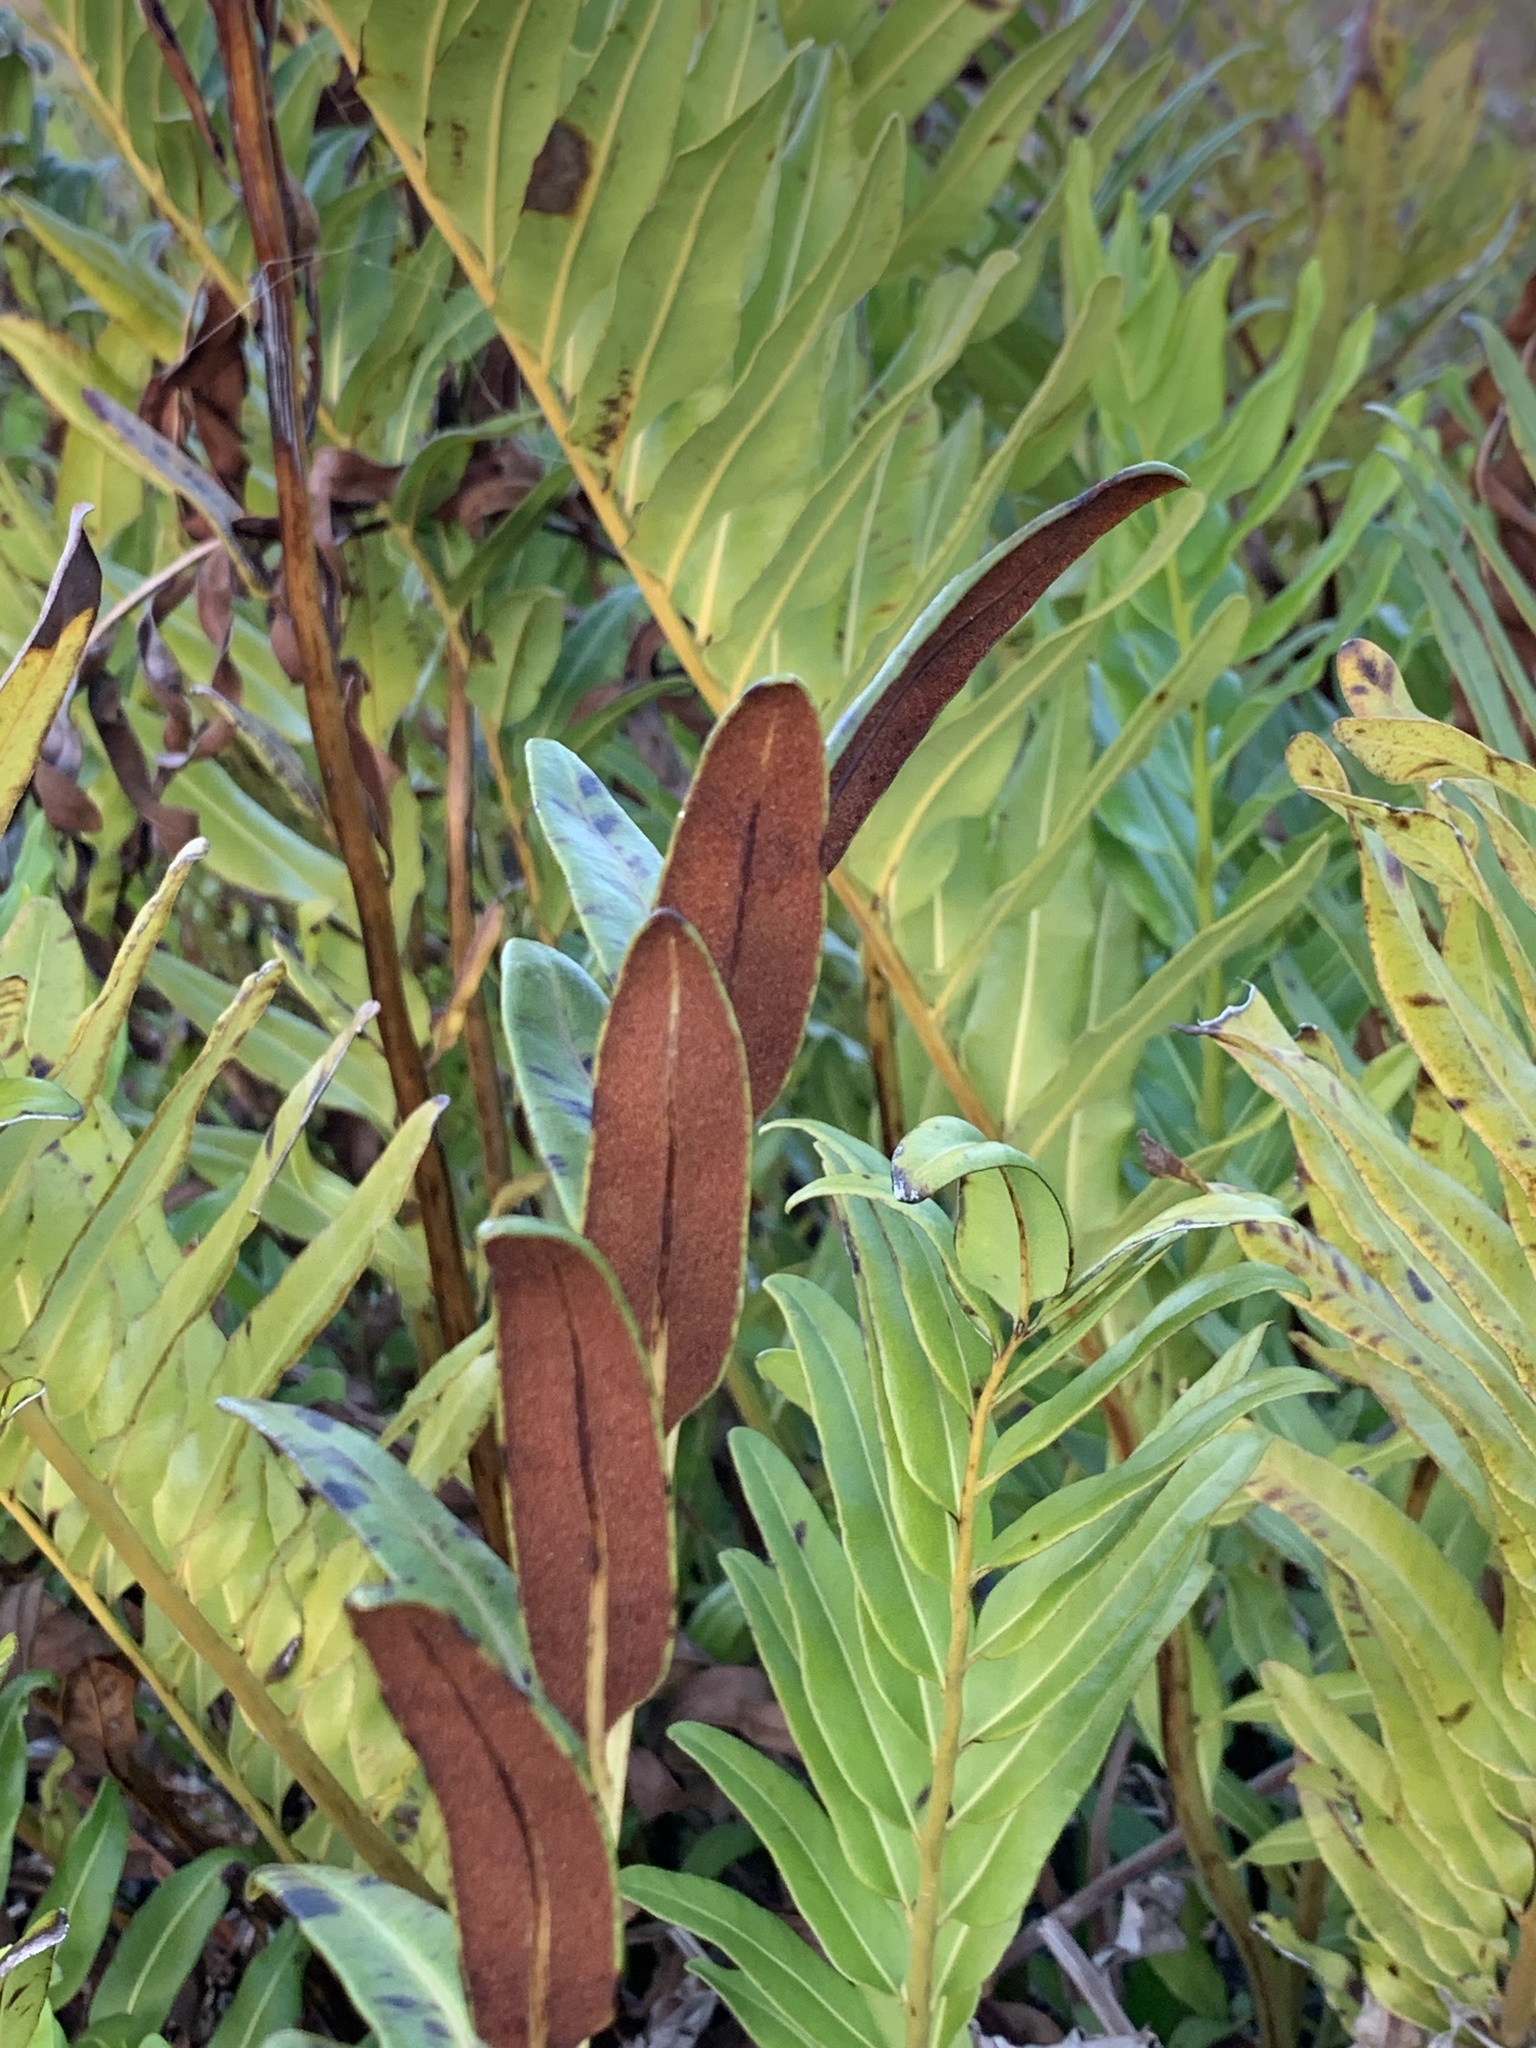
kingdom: Plantae
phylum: Tracheophyta
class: Polypodiopsida
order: Polypodiales
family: Pteridaceae
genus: Acrostichum
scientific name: Acrostichum danaeifolium
